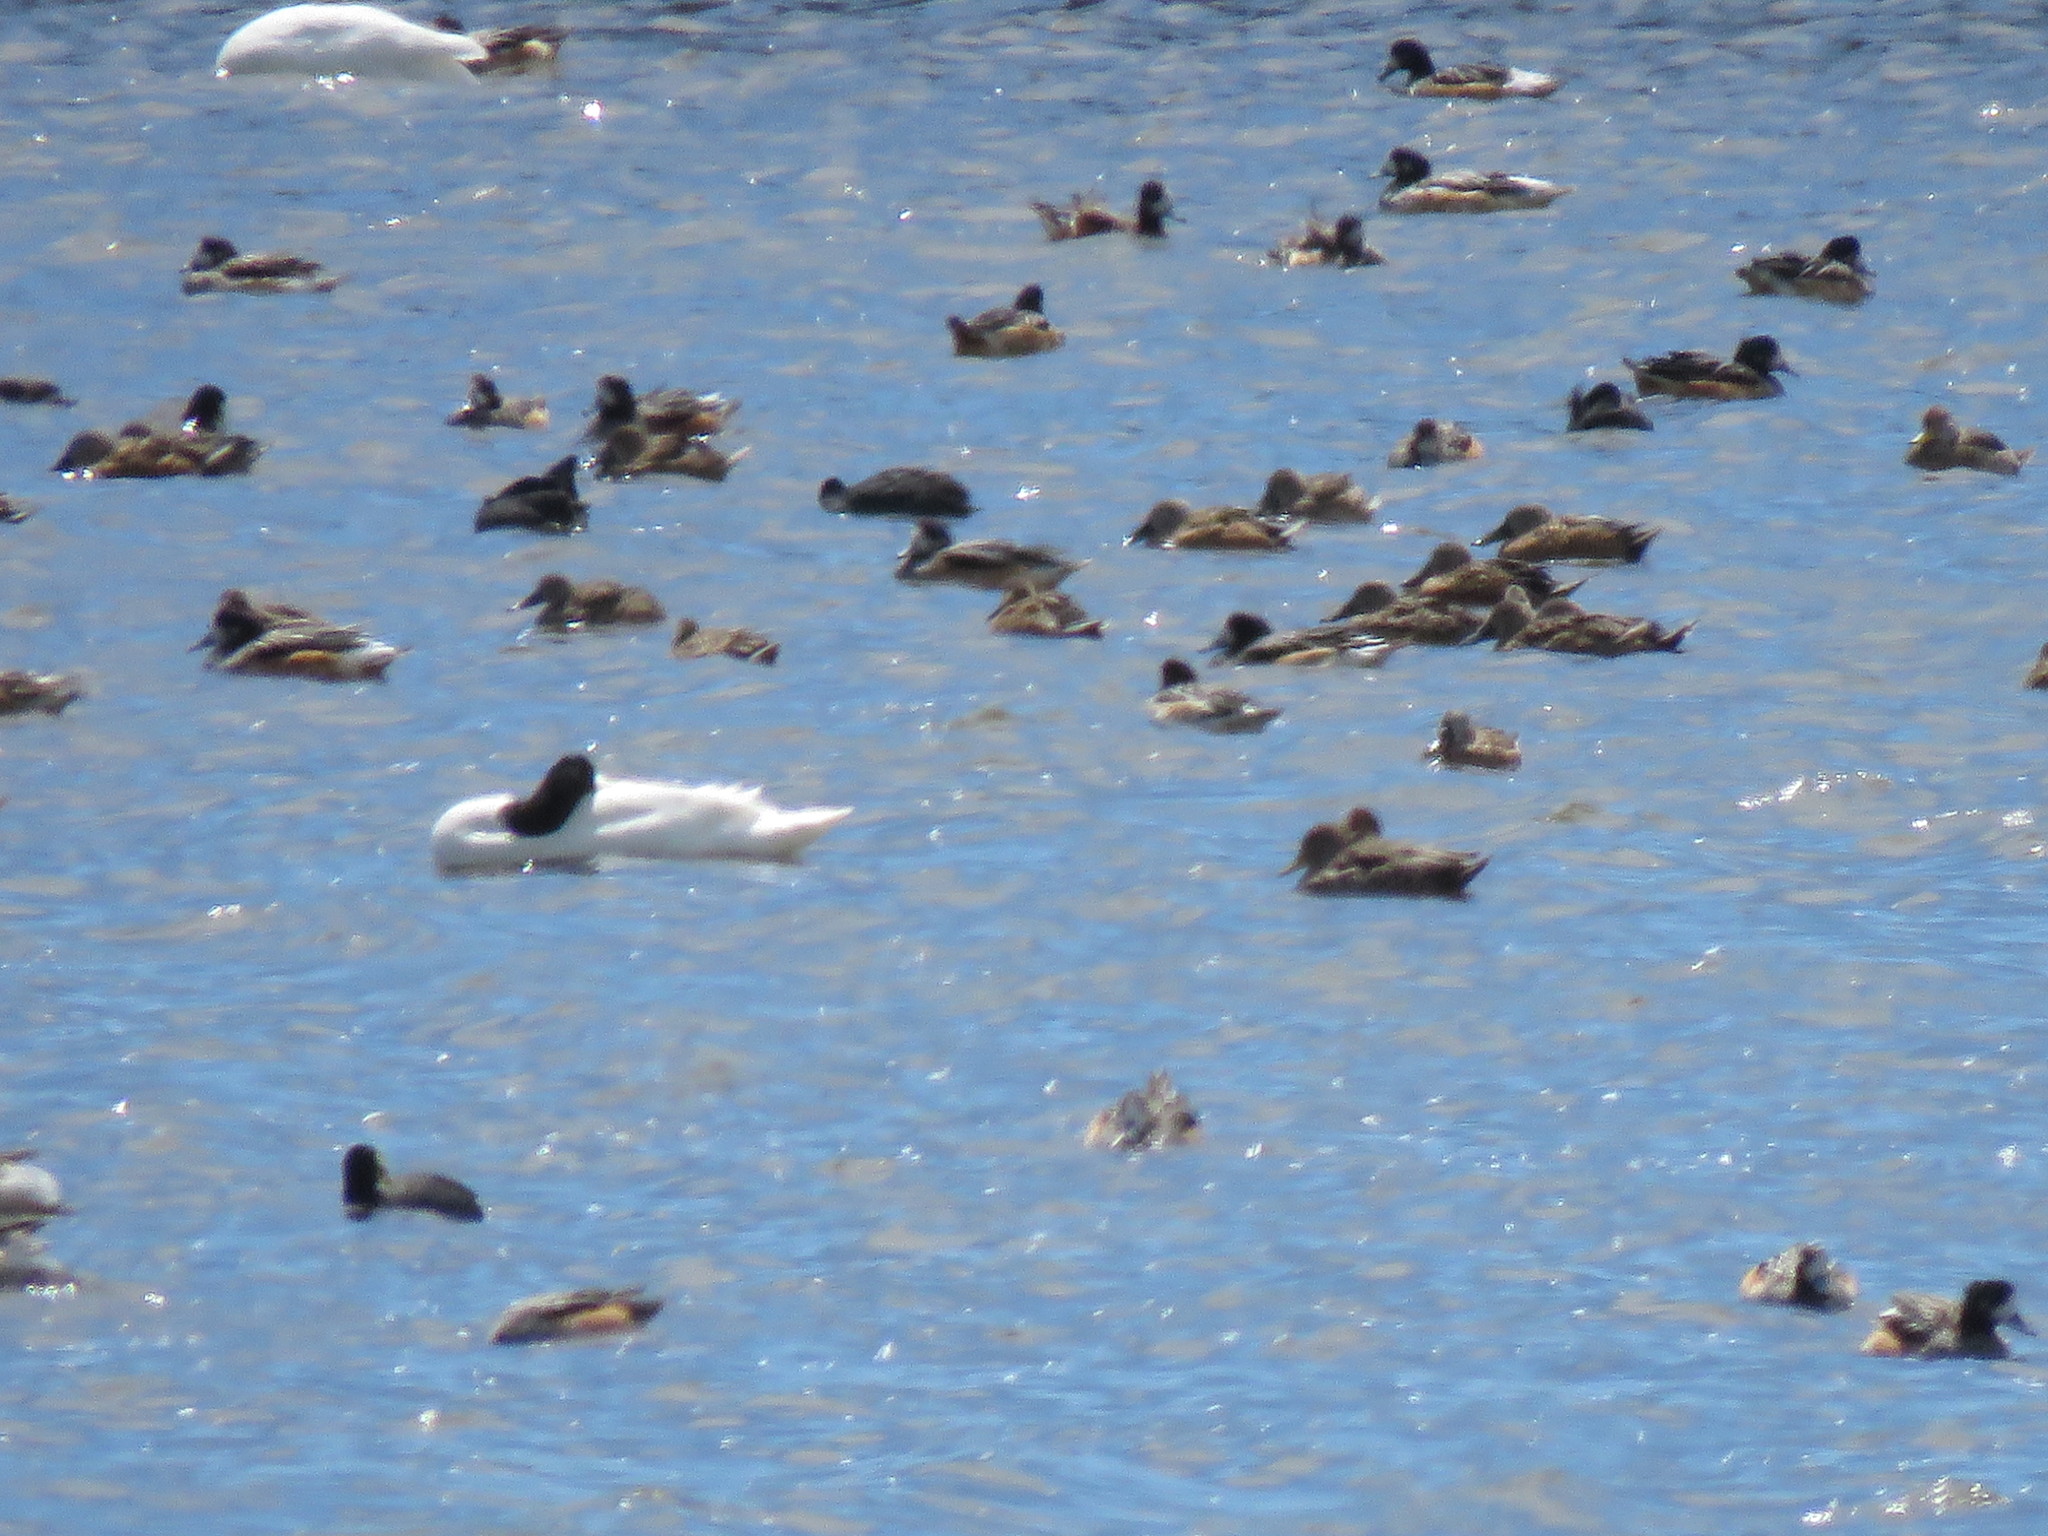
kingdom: Animalia
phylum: Chordata
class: Aves
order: Anseriformes
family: Anatidae
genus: Mareca
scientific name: Mareca sibilatrix
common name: Chiloe wigeon
